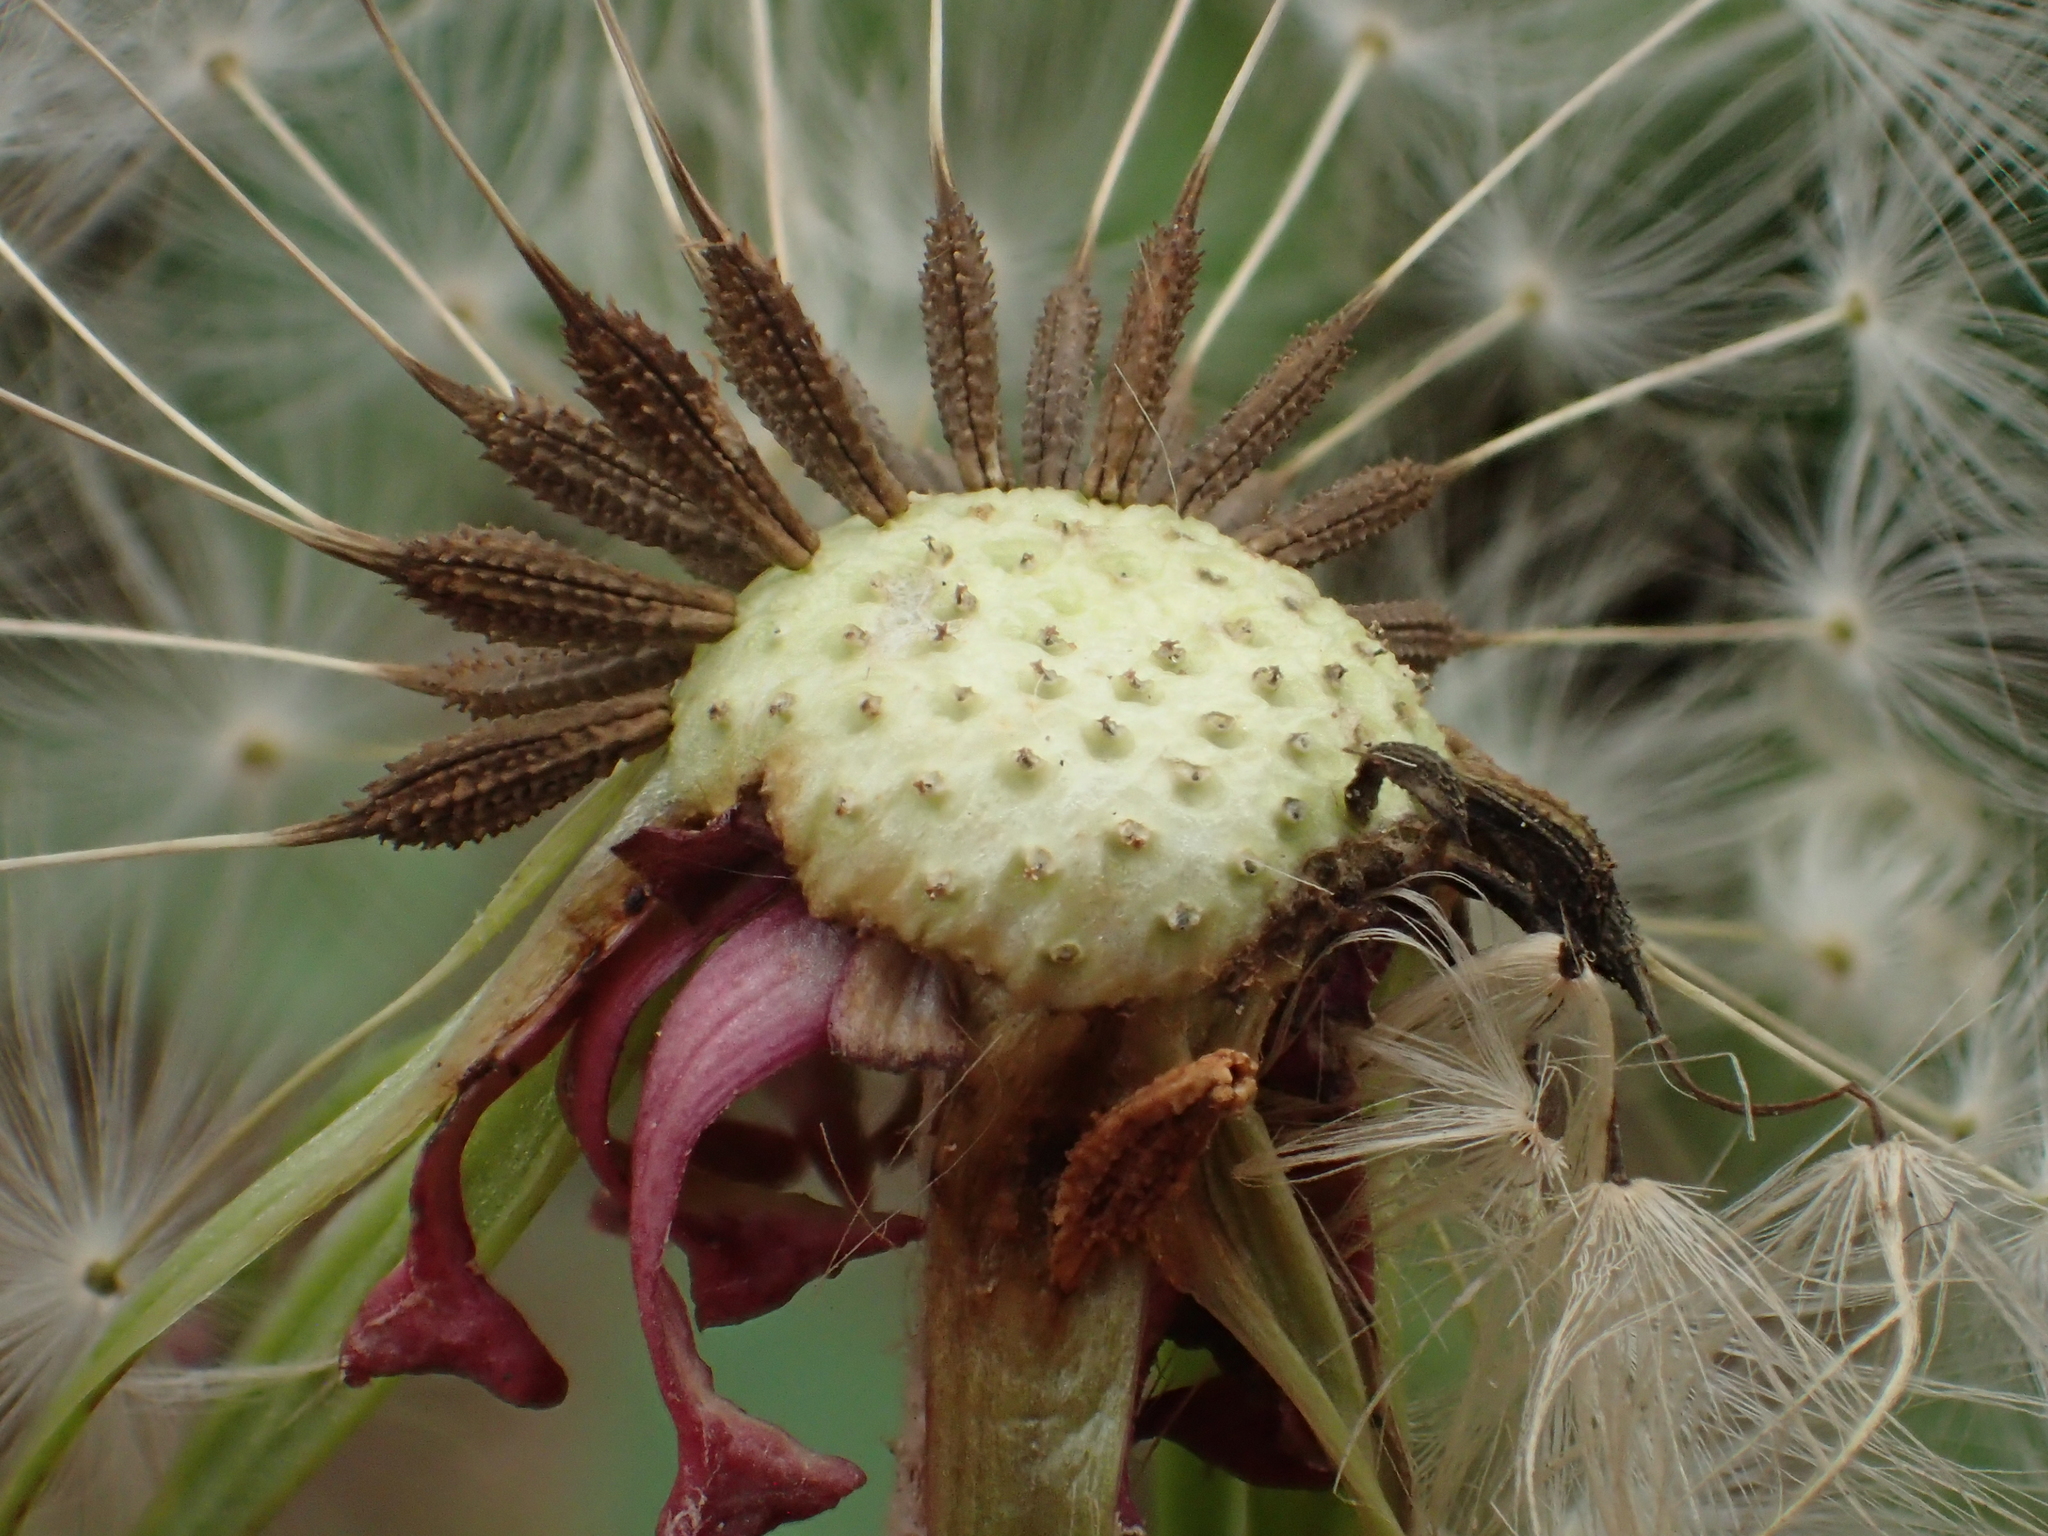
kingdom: Plantae
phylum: Tracheophyta
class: Magnoliopsida
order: Asterales
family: Asteraceae
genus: Taraxacum
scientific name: Taraxacum formosanum
